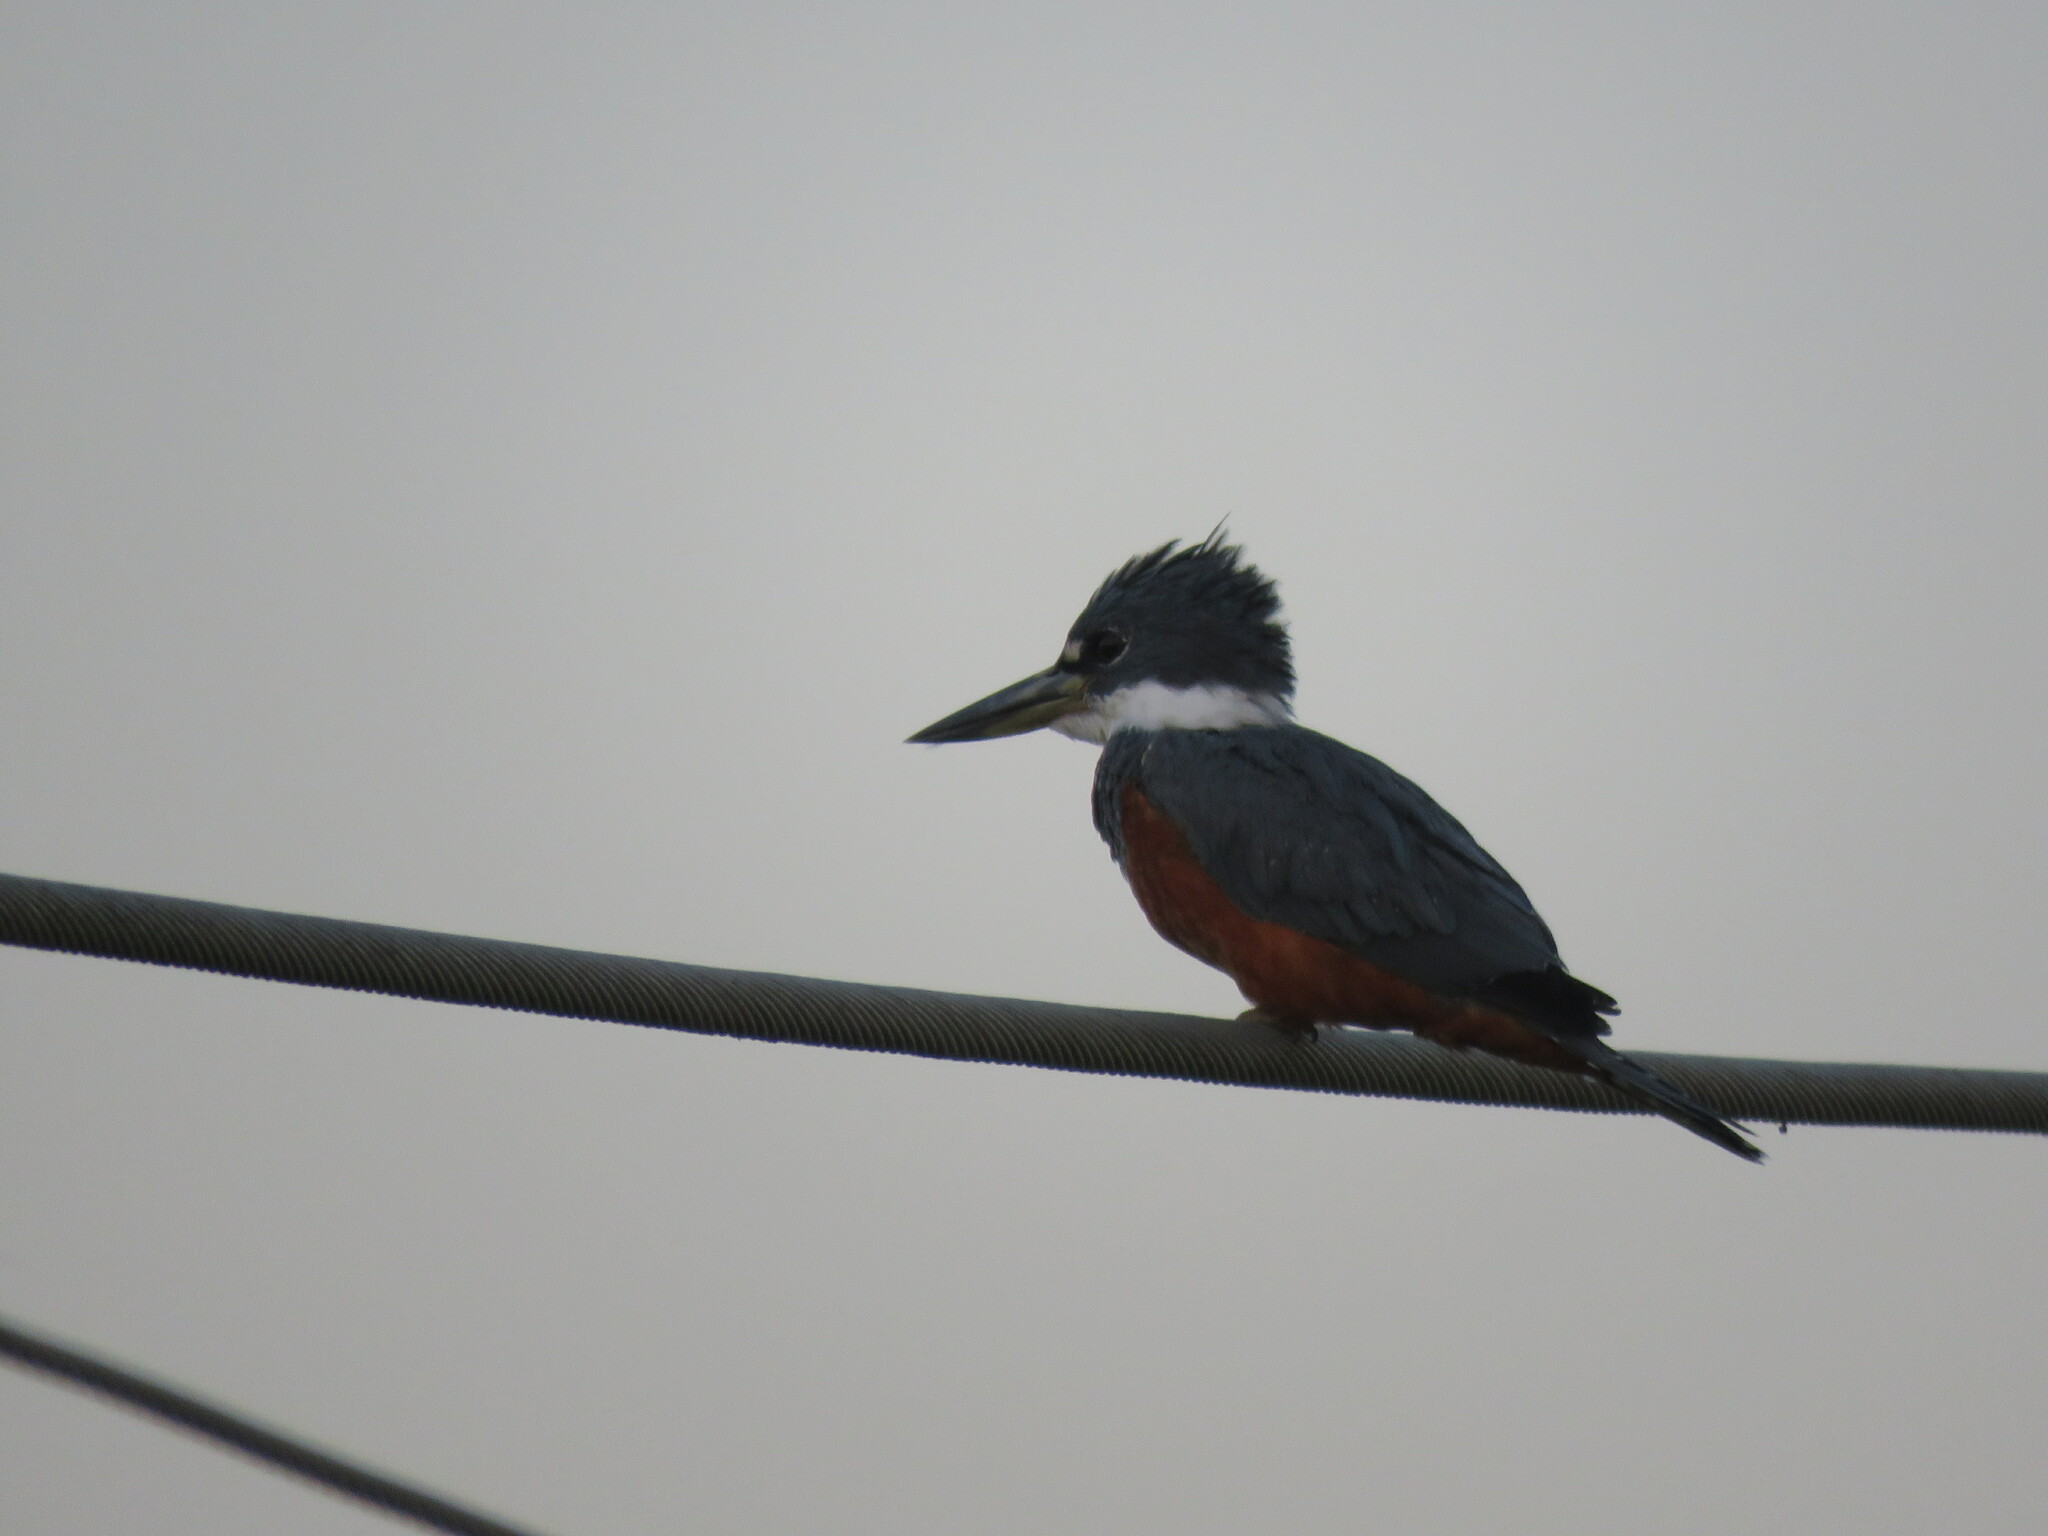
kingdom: Animalia
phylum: Chordata
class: Aves
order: Coraciiformes
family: Alcedinidae
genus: Megaceryle
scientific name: Megaceryle torquata
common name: Ringed kingfisher
